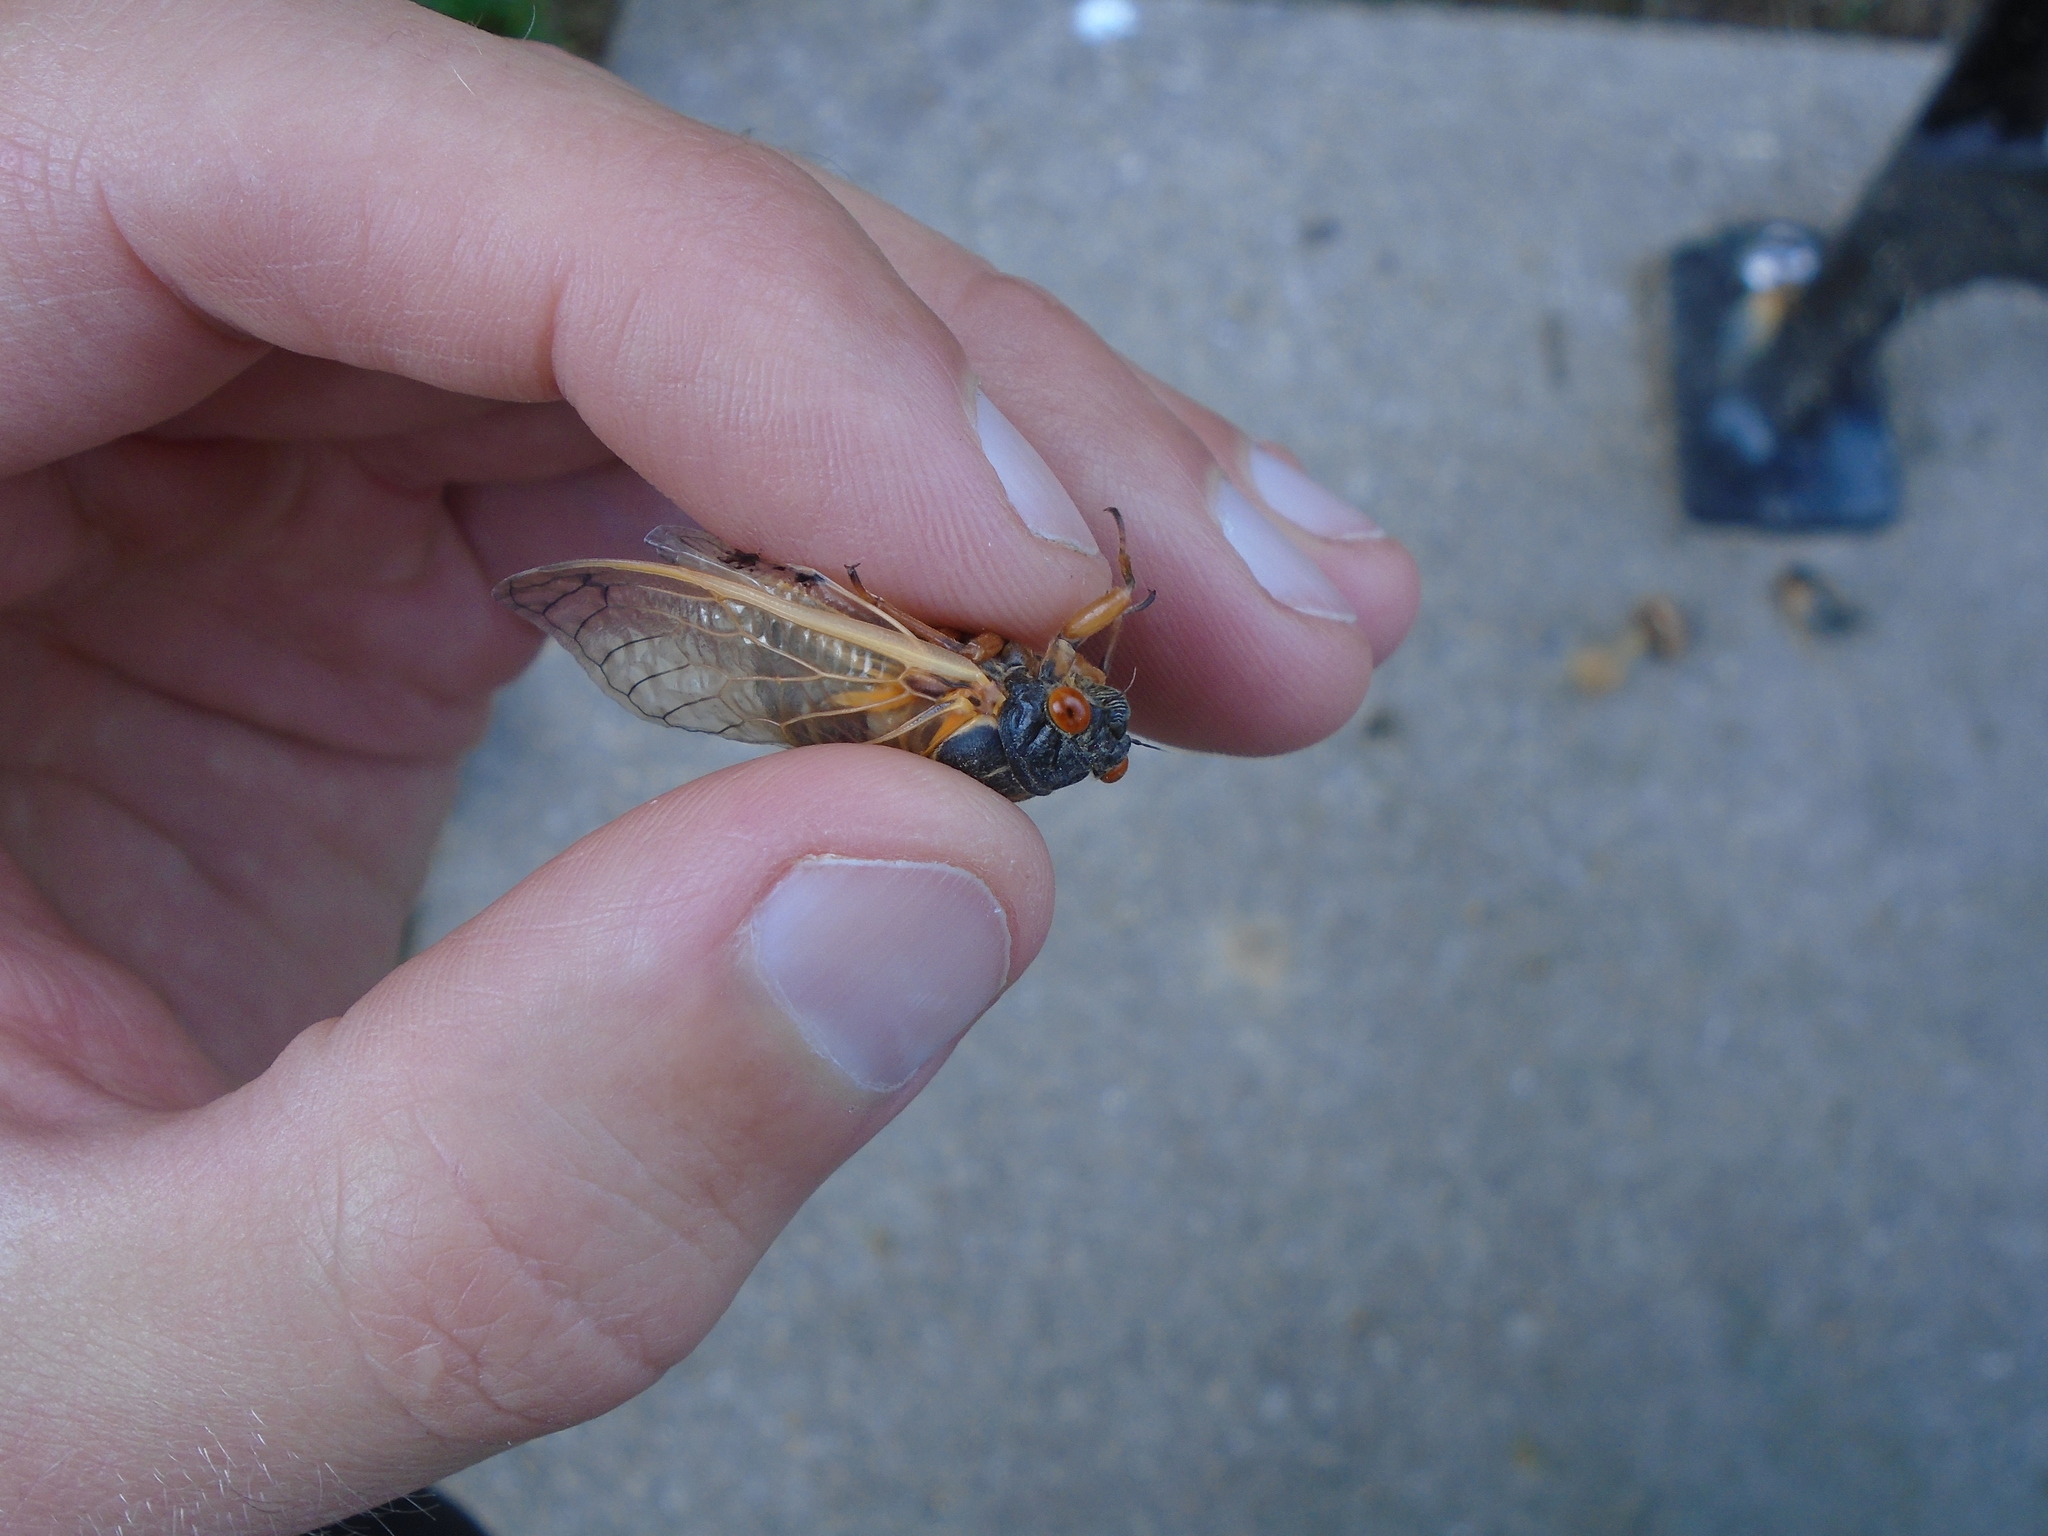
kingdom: Animalia
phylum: Arthropoda
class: Insecta
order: Hemiptera
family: Cicadidae
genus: Magicicada
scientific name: Magicicada cassini
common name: Cassin's 17-year cicada
